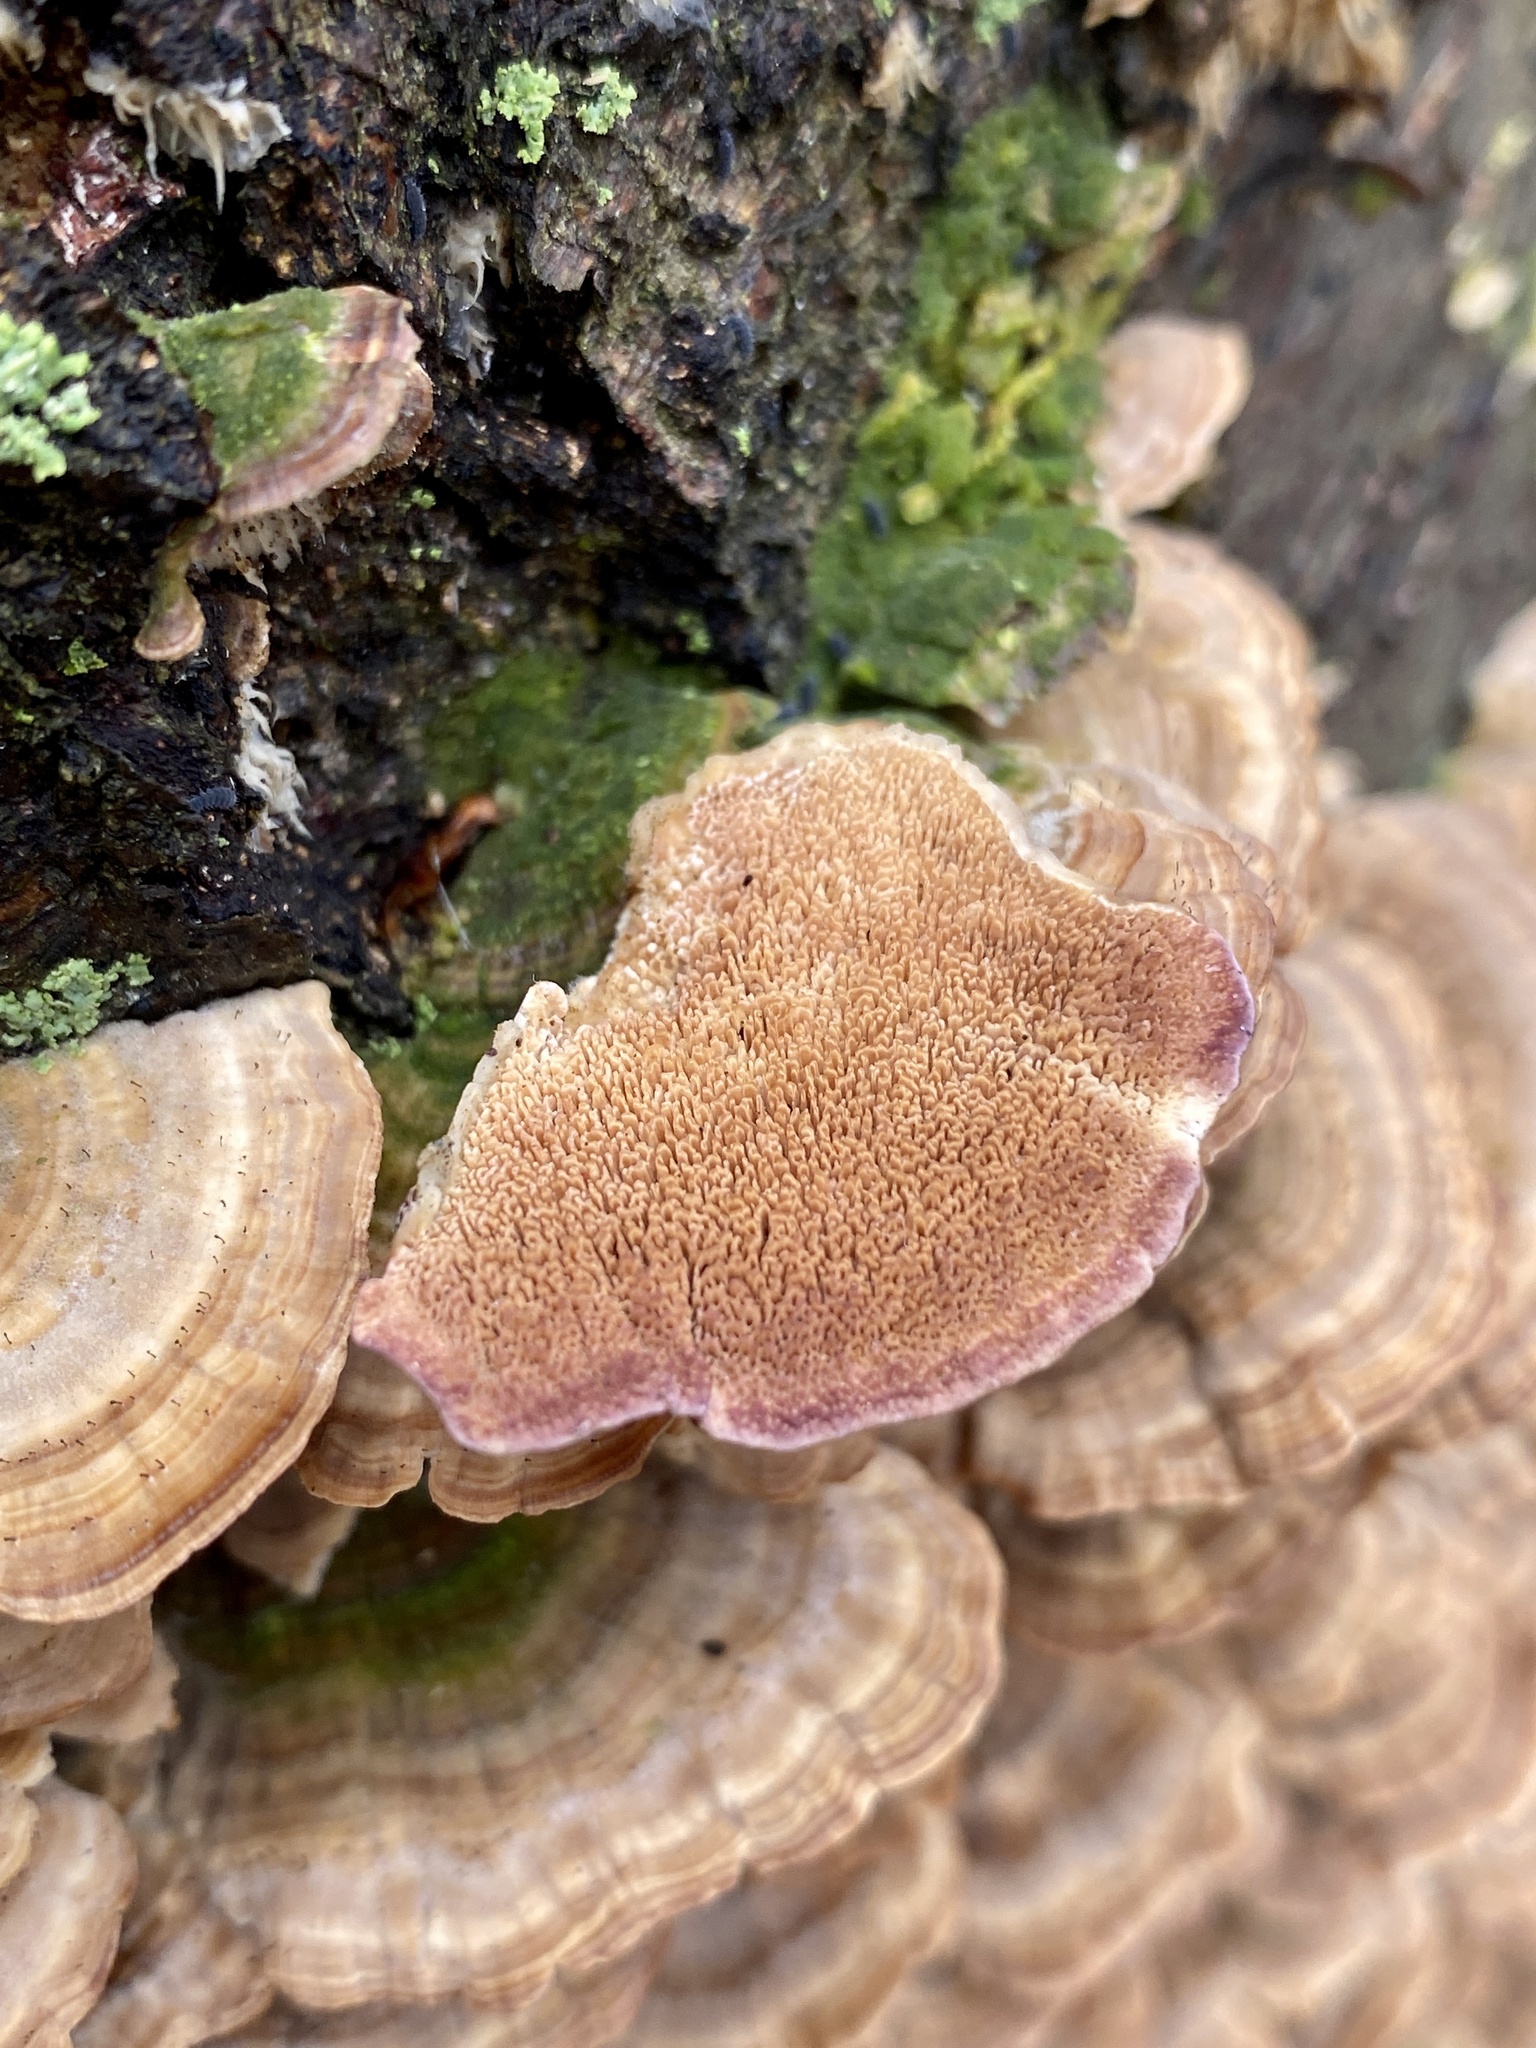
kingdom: Fungi
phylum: Basidiomycota
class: Agaricomycetes
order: Hymenochaetales
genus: Trichaptum
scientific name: Trichaptum biforme
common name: Violet-toothed polypore
